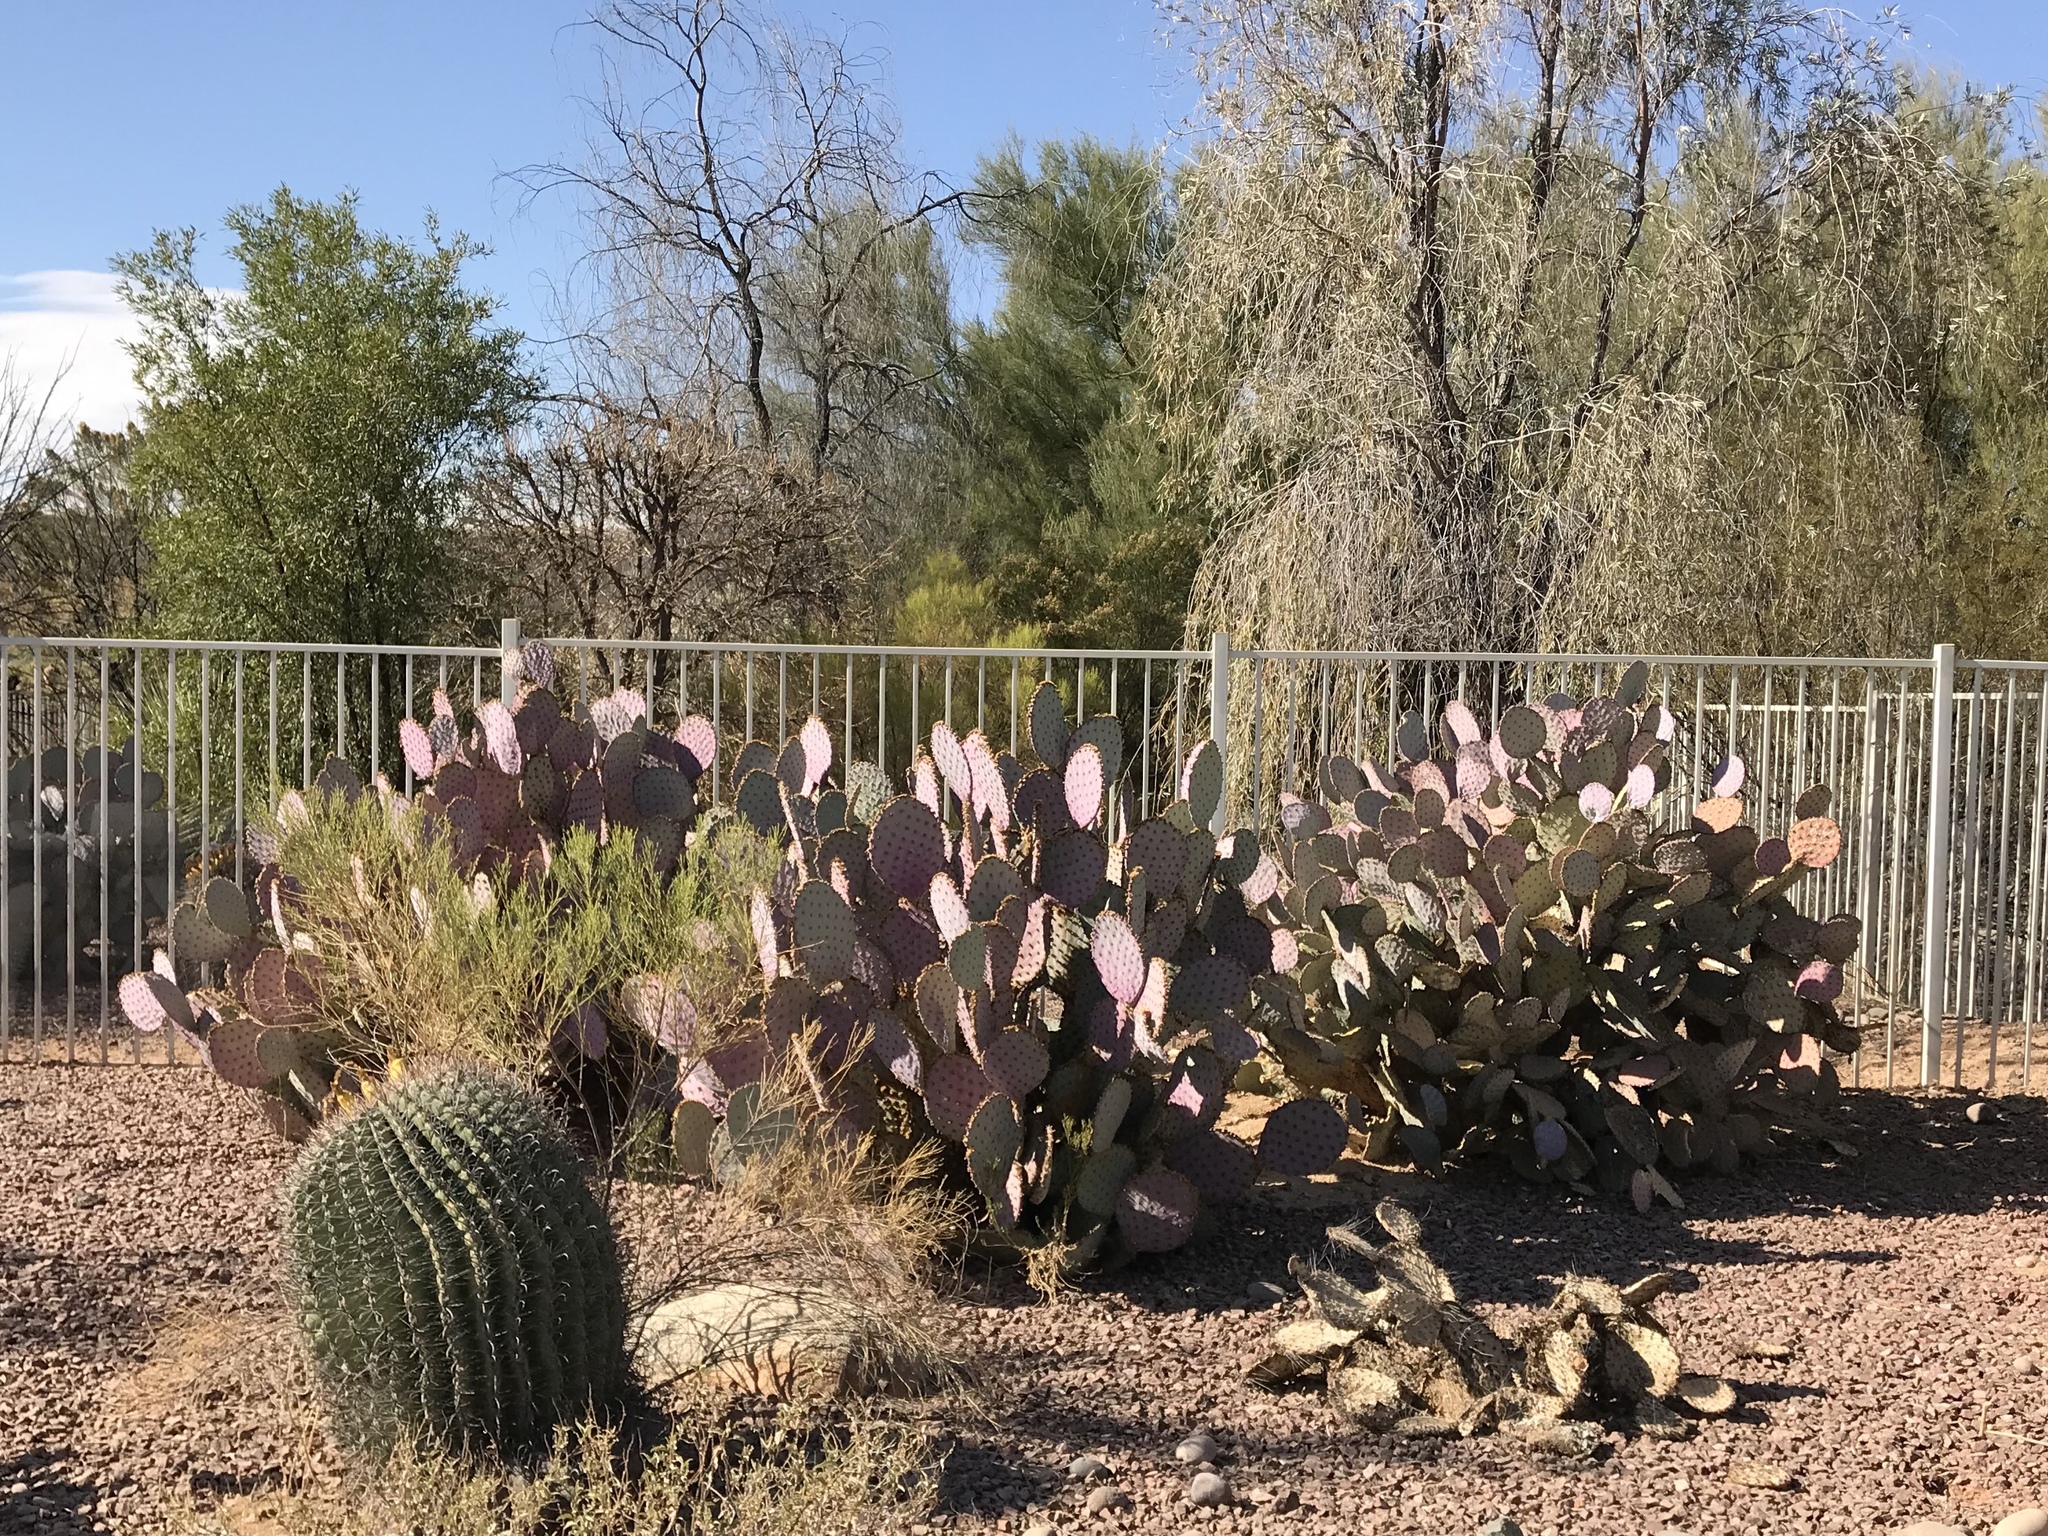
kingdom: Plantae
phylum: Tracheophyta
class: Magnoliopsida
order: Caryophyllales
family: Cactaceae
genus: Ferocactus
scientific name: Ferocactus wislizeni
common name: Candy barrel cactus
